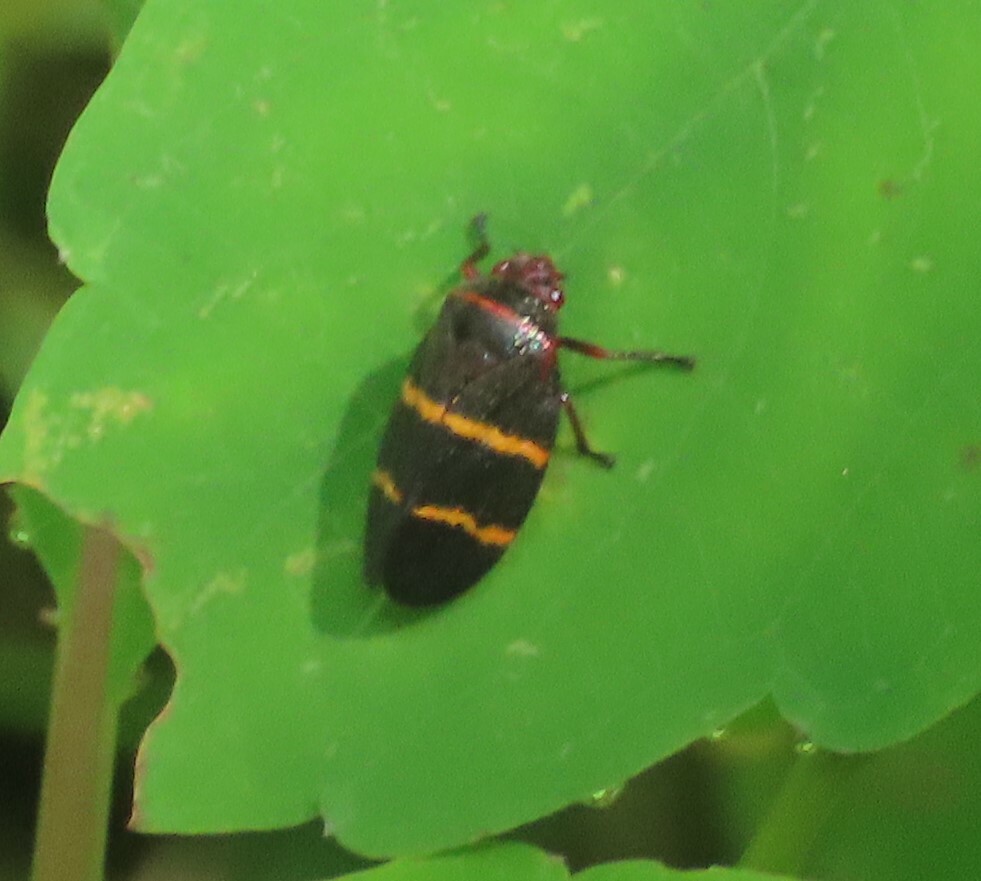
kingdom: Animalia
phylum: Arthropoda
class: Insecta
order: Hemiptera
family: Cercopidae
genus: Prosapia
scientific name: Prosapia bicincta
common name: Twolined spittlebug
